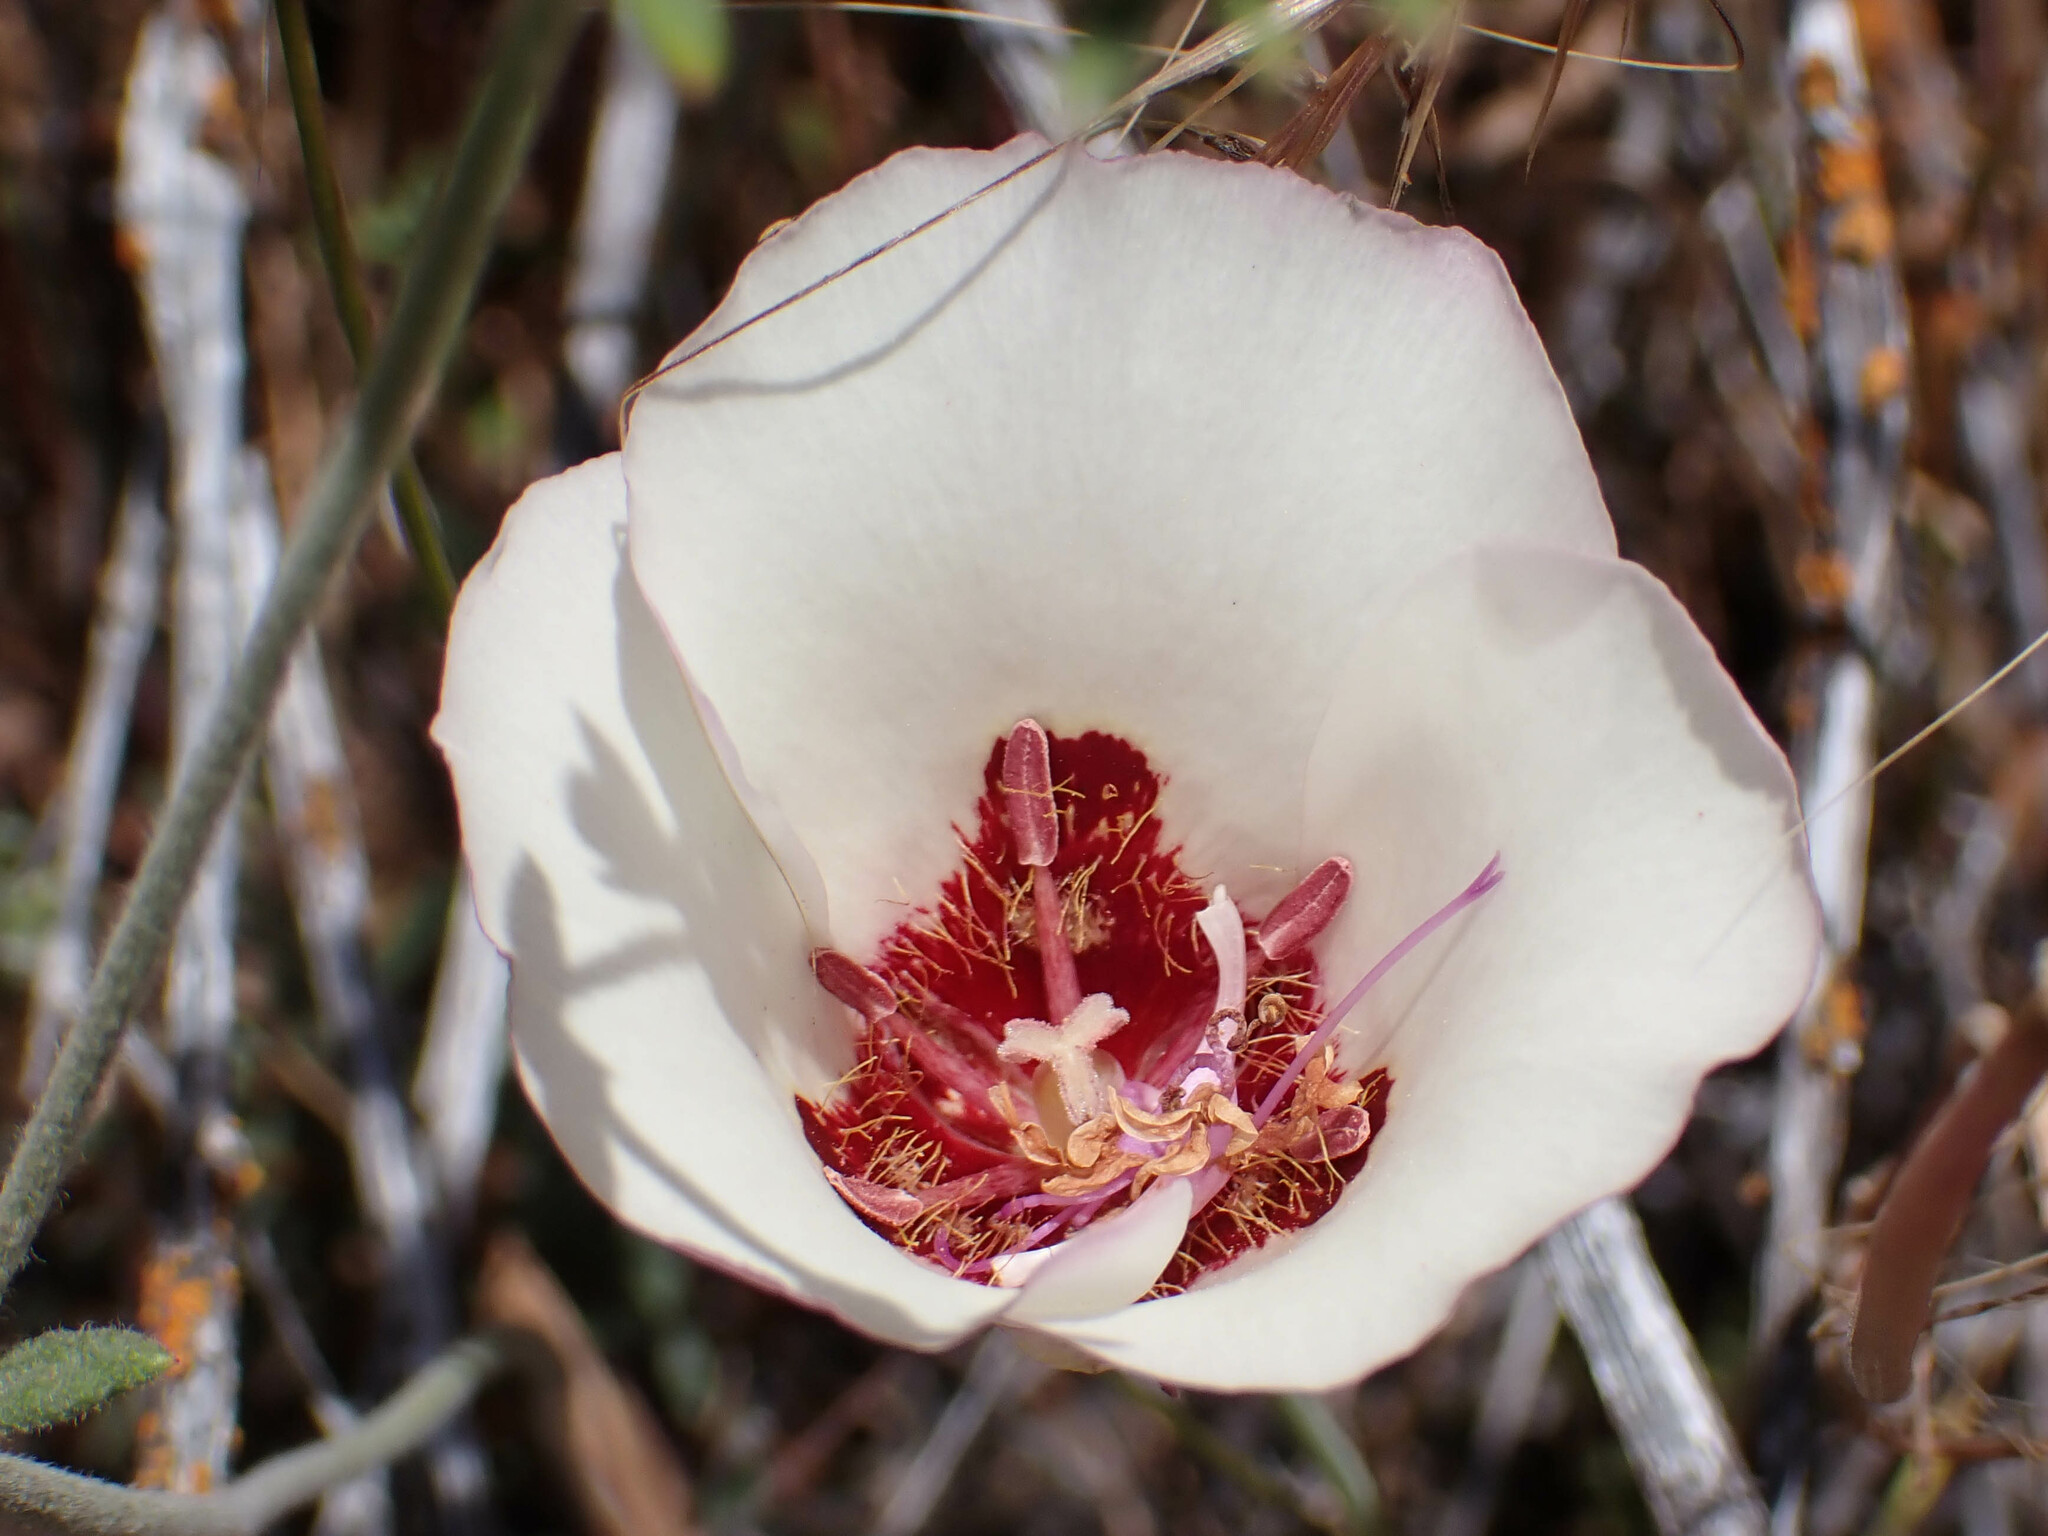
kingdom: Plantae
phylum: Tracheophyta
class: Liliopsida
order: Liliales
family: Liliaceae
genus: Calochortus
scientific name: Calochortus simulans
